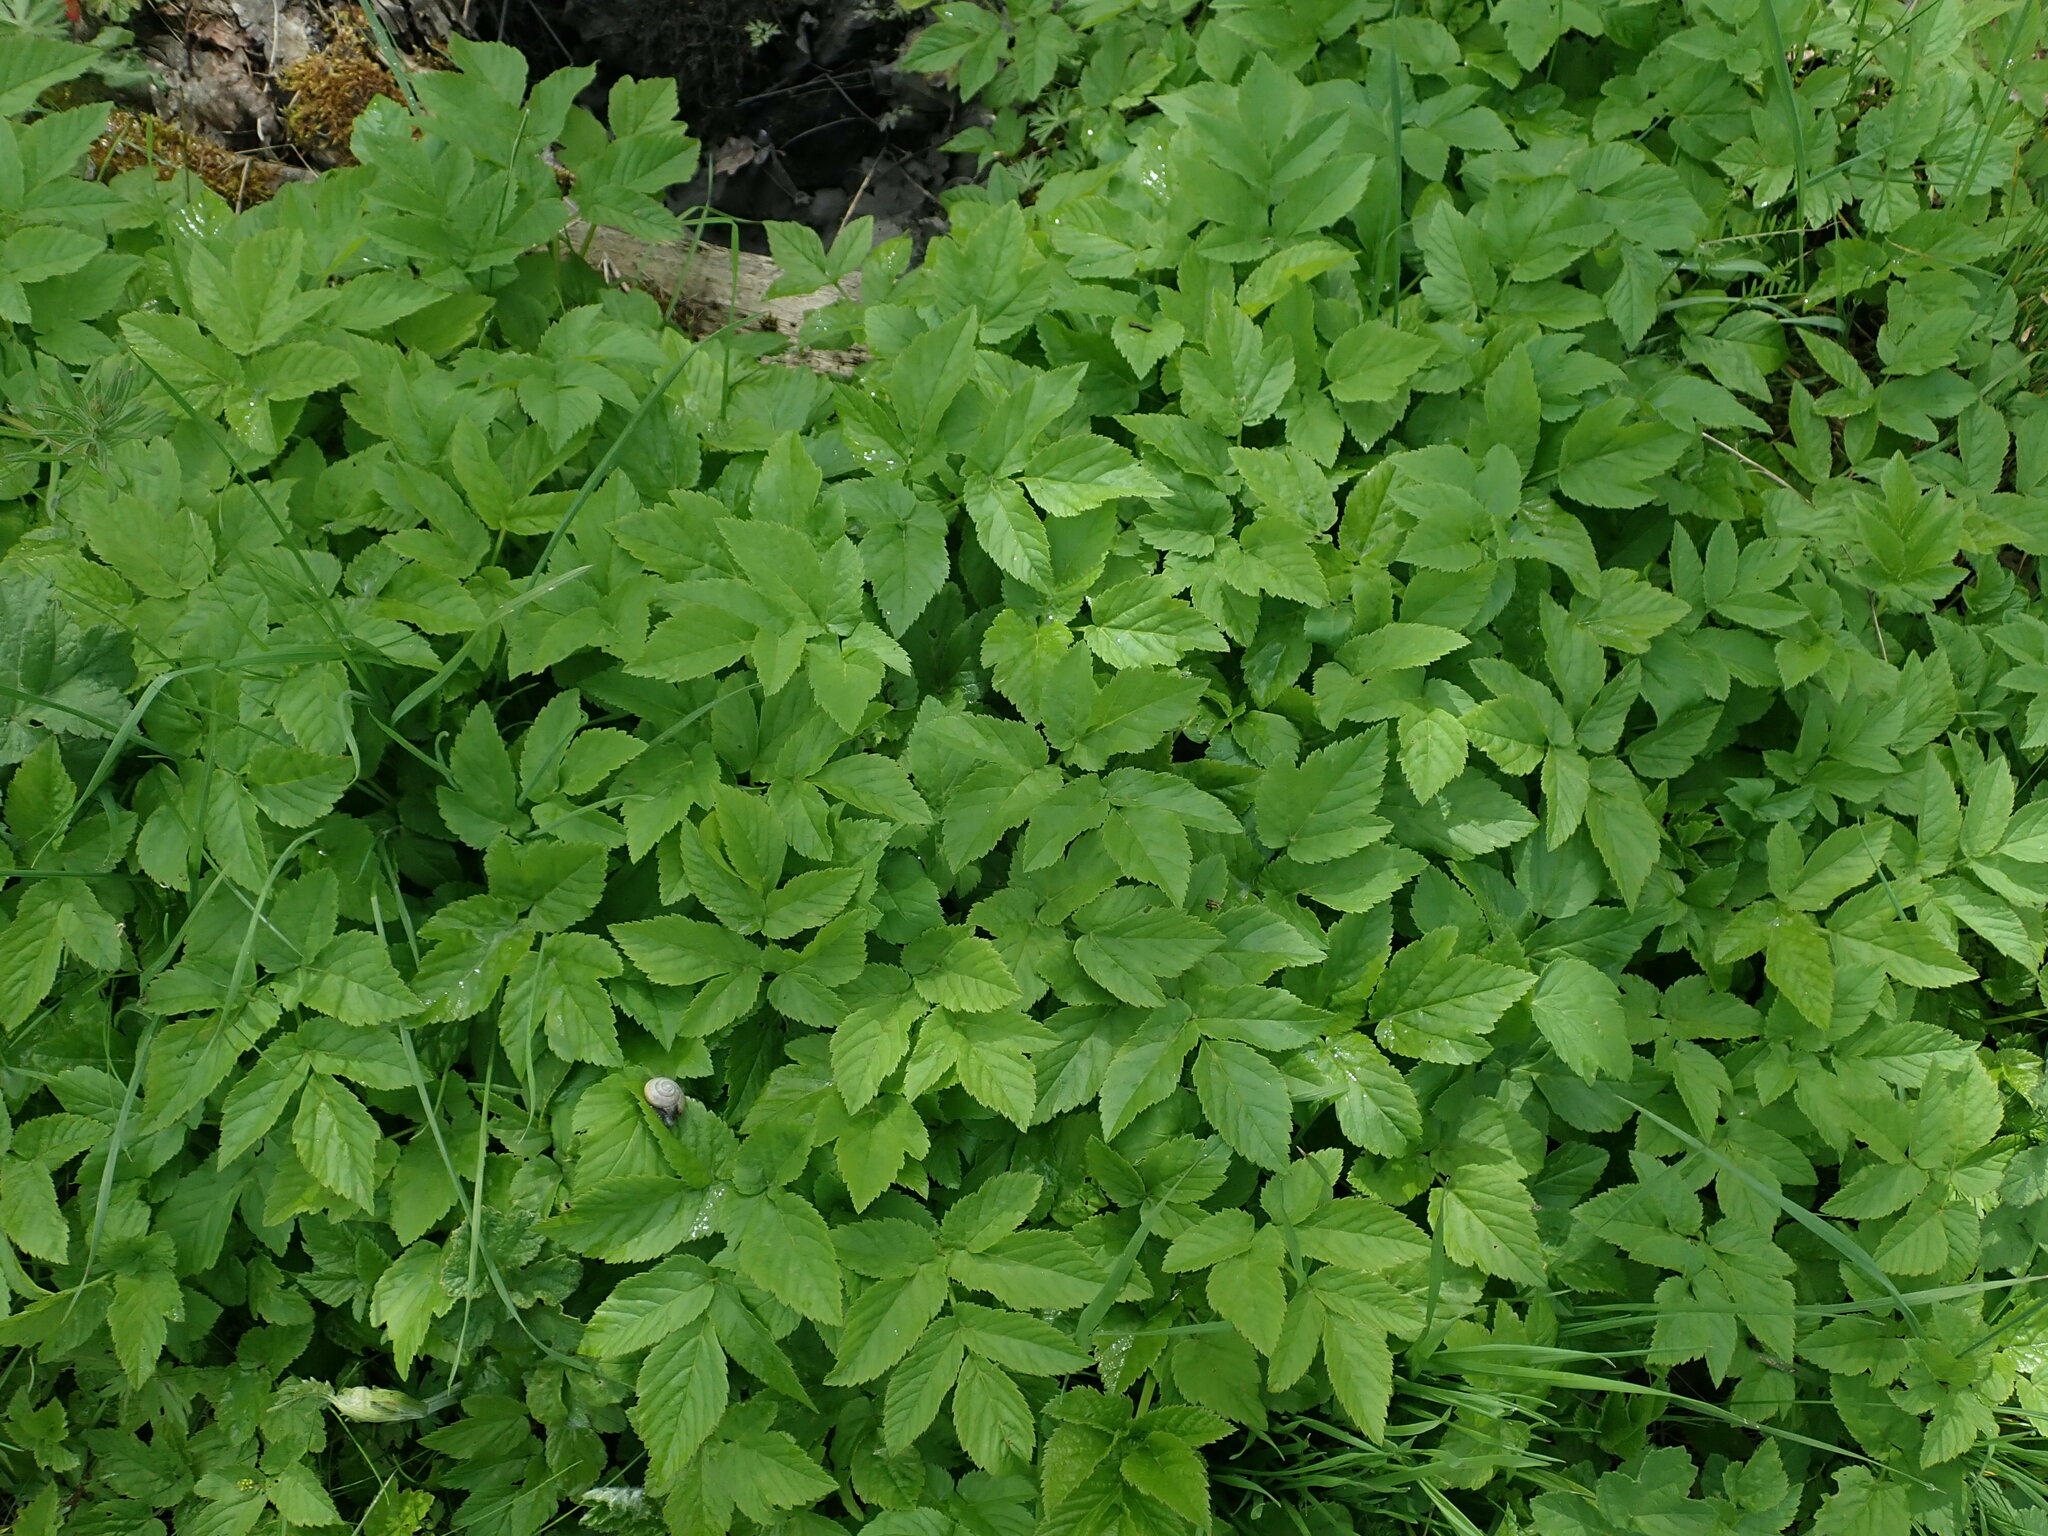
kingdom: Plantae
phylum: Tracheophyta
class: Magnoliopsida
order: Apiales
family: Apiaceae
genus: Aegopodium
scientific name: Aegopodium podagraria
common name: Ground-elder
